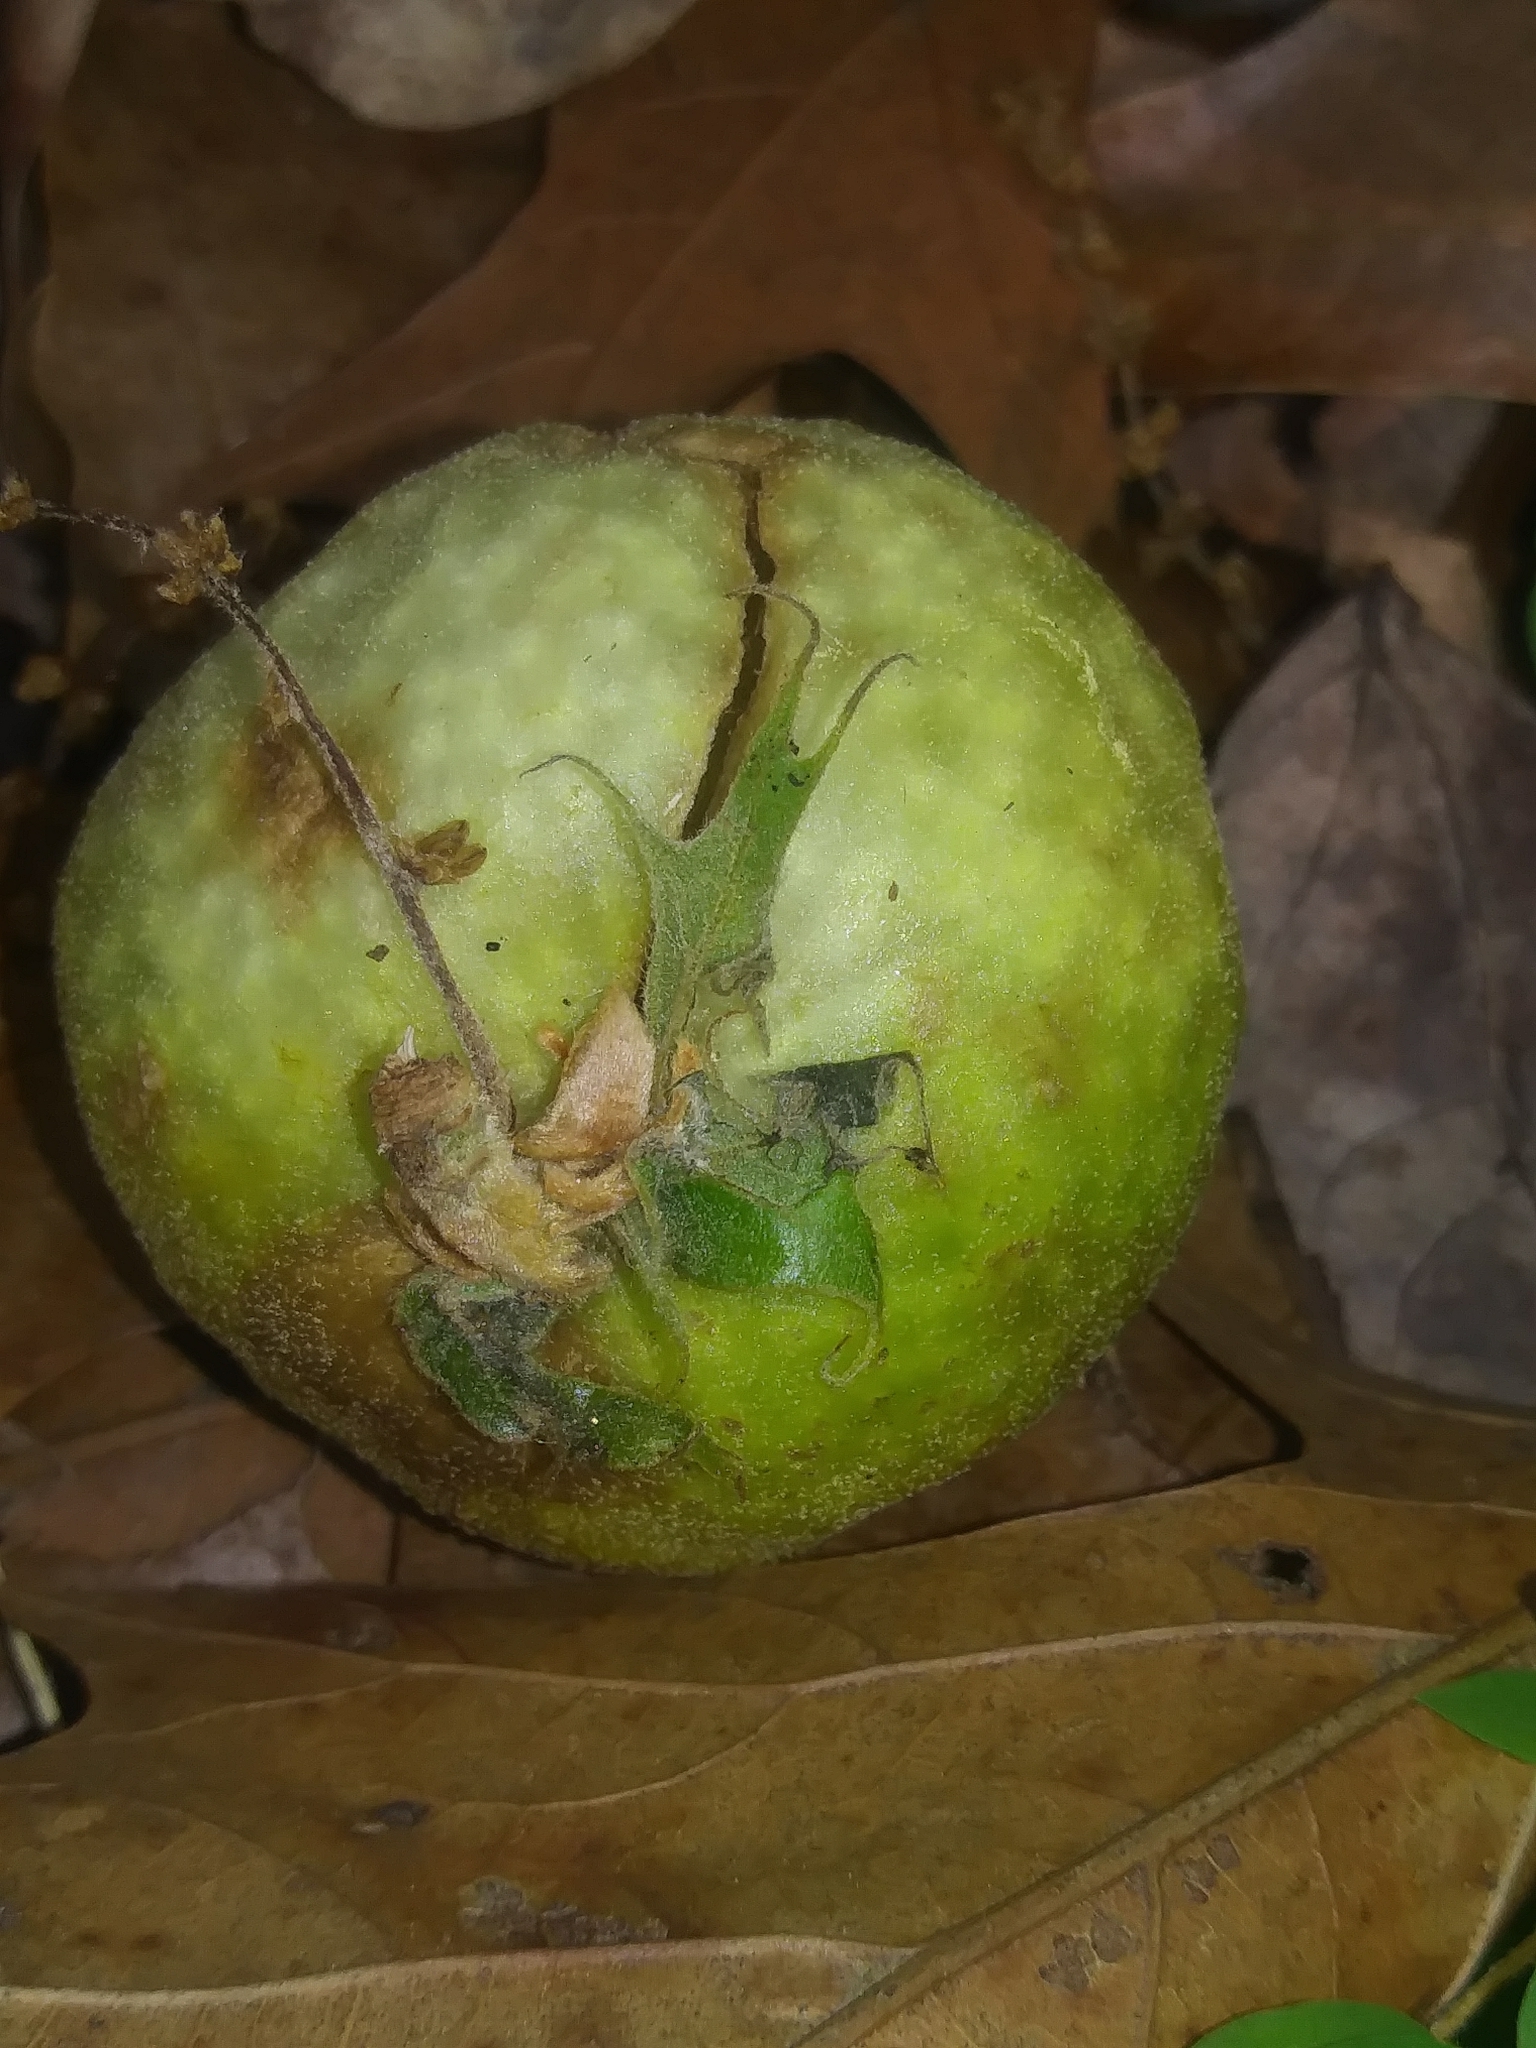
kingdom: Animalia
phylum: Arthropoda
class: Insecta
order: Hymenoptera
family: Cynipidae
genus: Amphibolips
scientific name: Amphibolips
